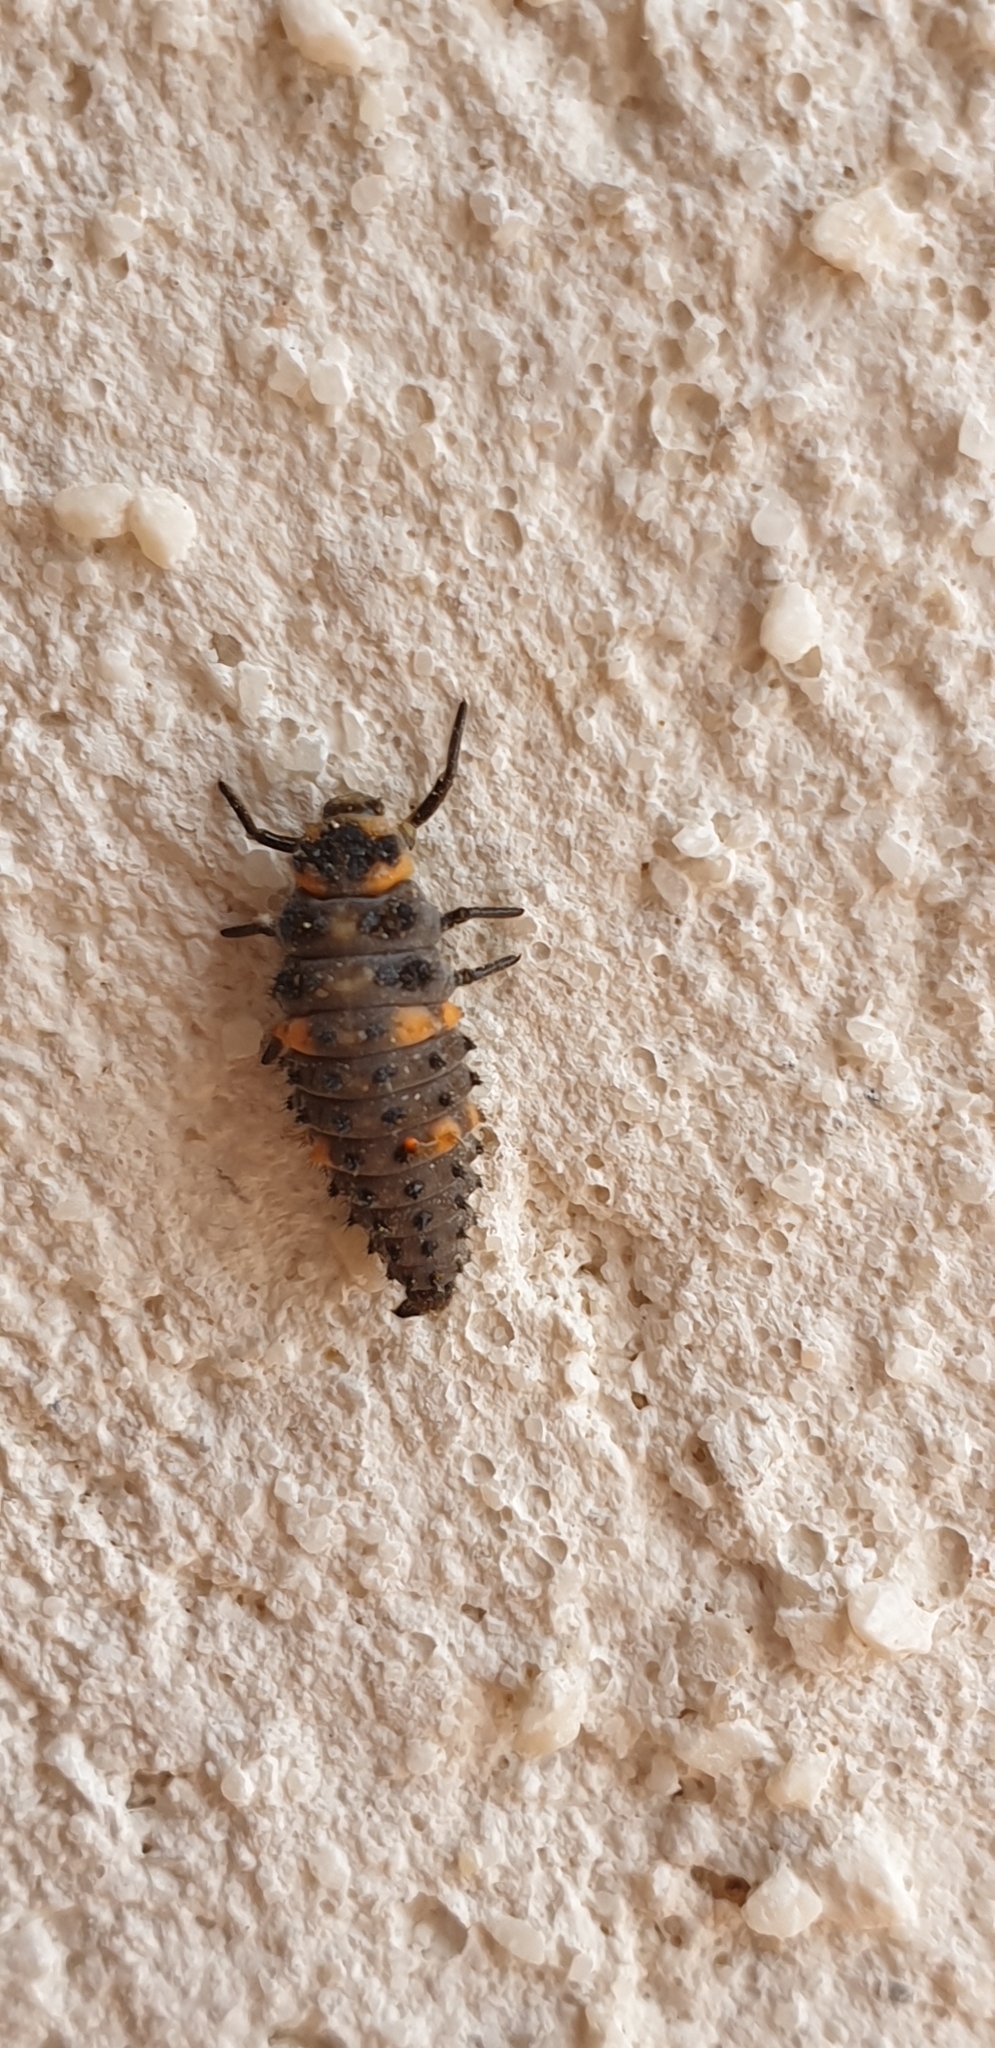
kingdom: Animalia
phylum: Arthropoda
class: Insecta
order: Coleoptera
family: Coccinellidae
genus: Coccinella
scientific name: Coccinella septempunctata
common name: Sevenspotted lady beetle
